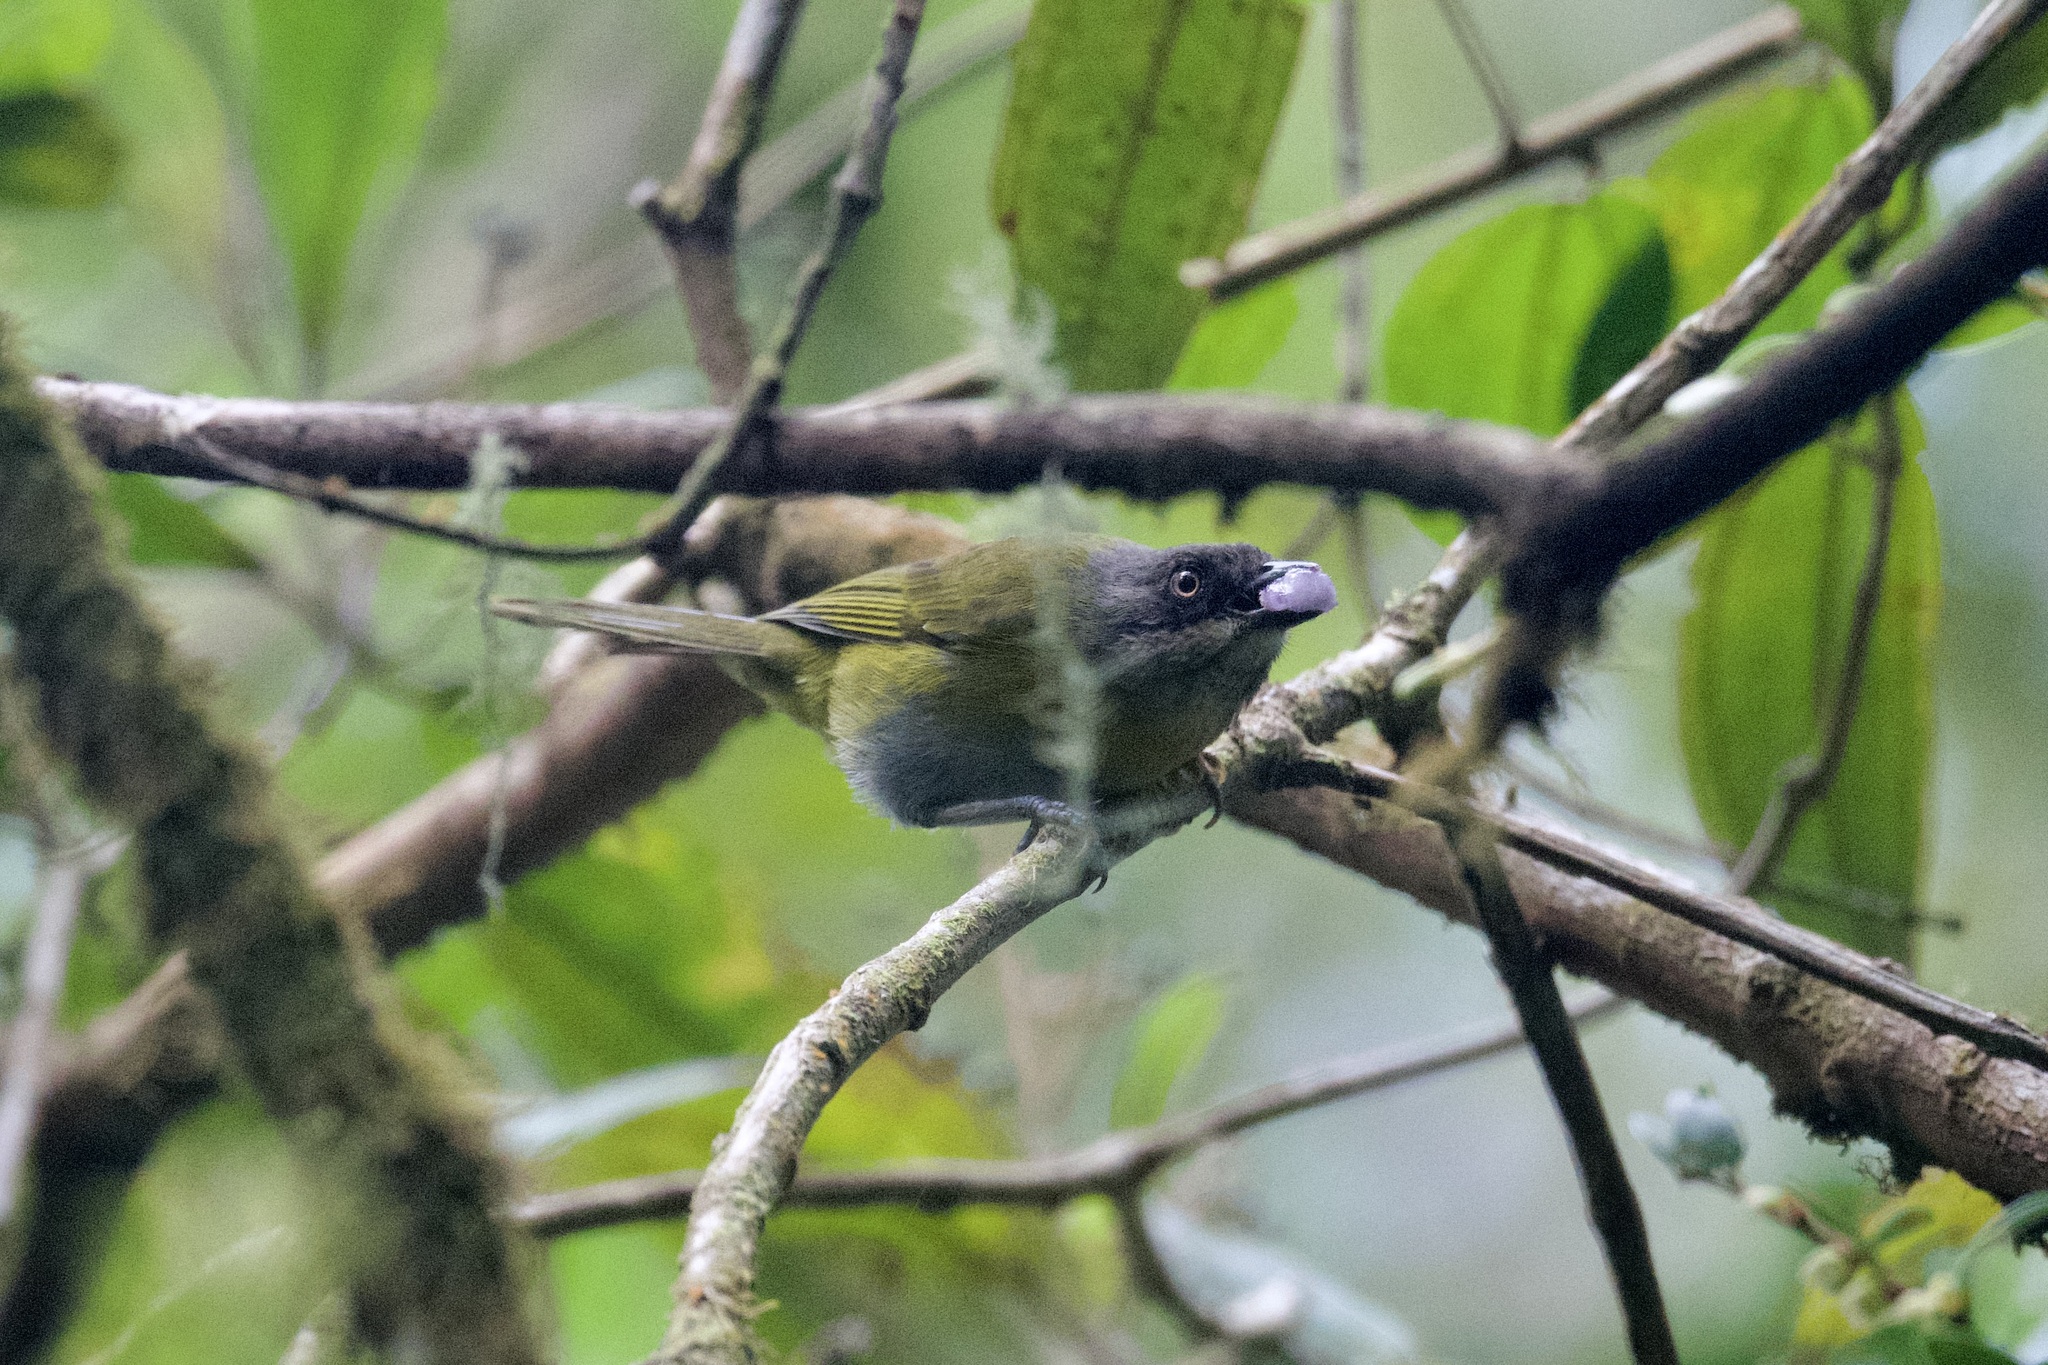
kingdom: Animalia
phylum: Chordata
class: Aves
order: Passeriformes
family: Passerellidae
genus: Chlorospingus
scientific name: Chlorospingus flavopectus
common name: Common chlorospingus
